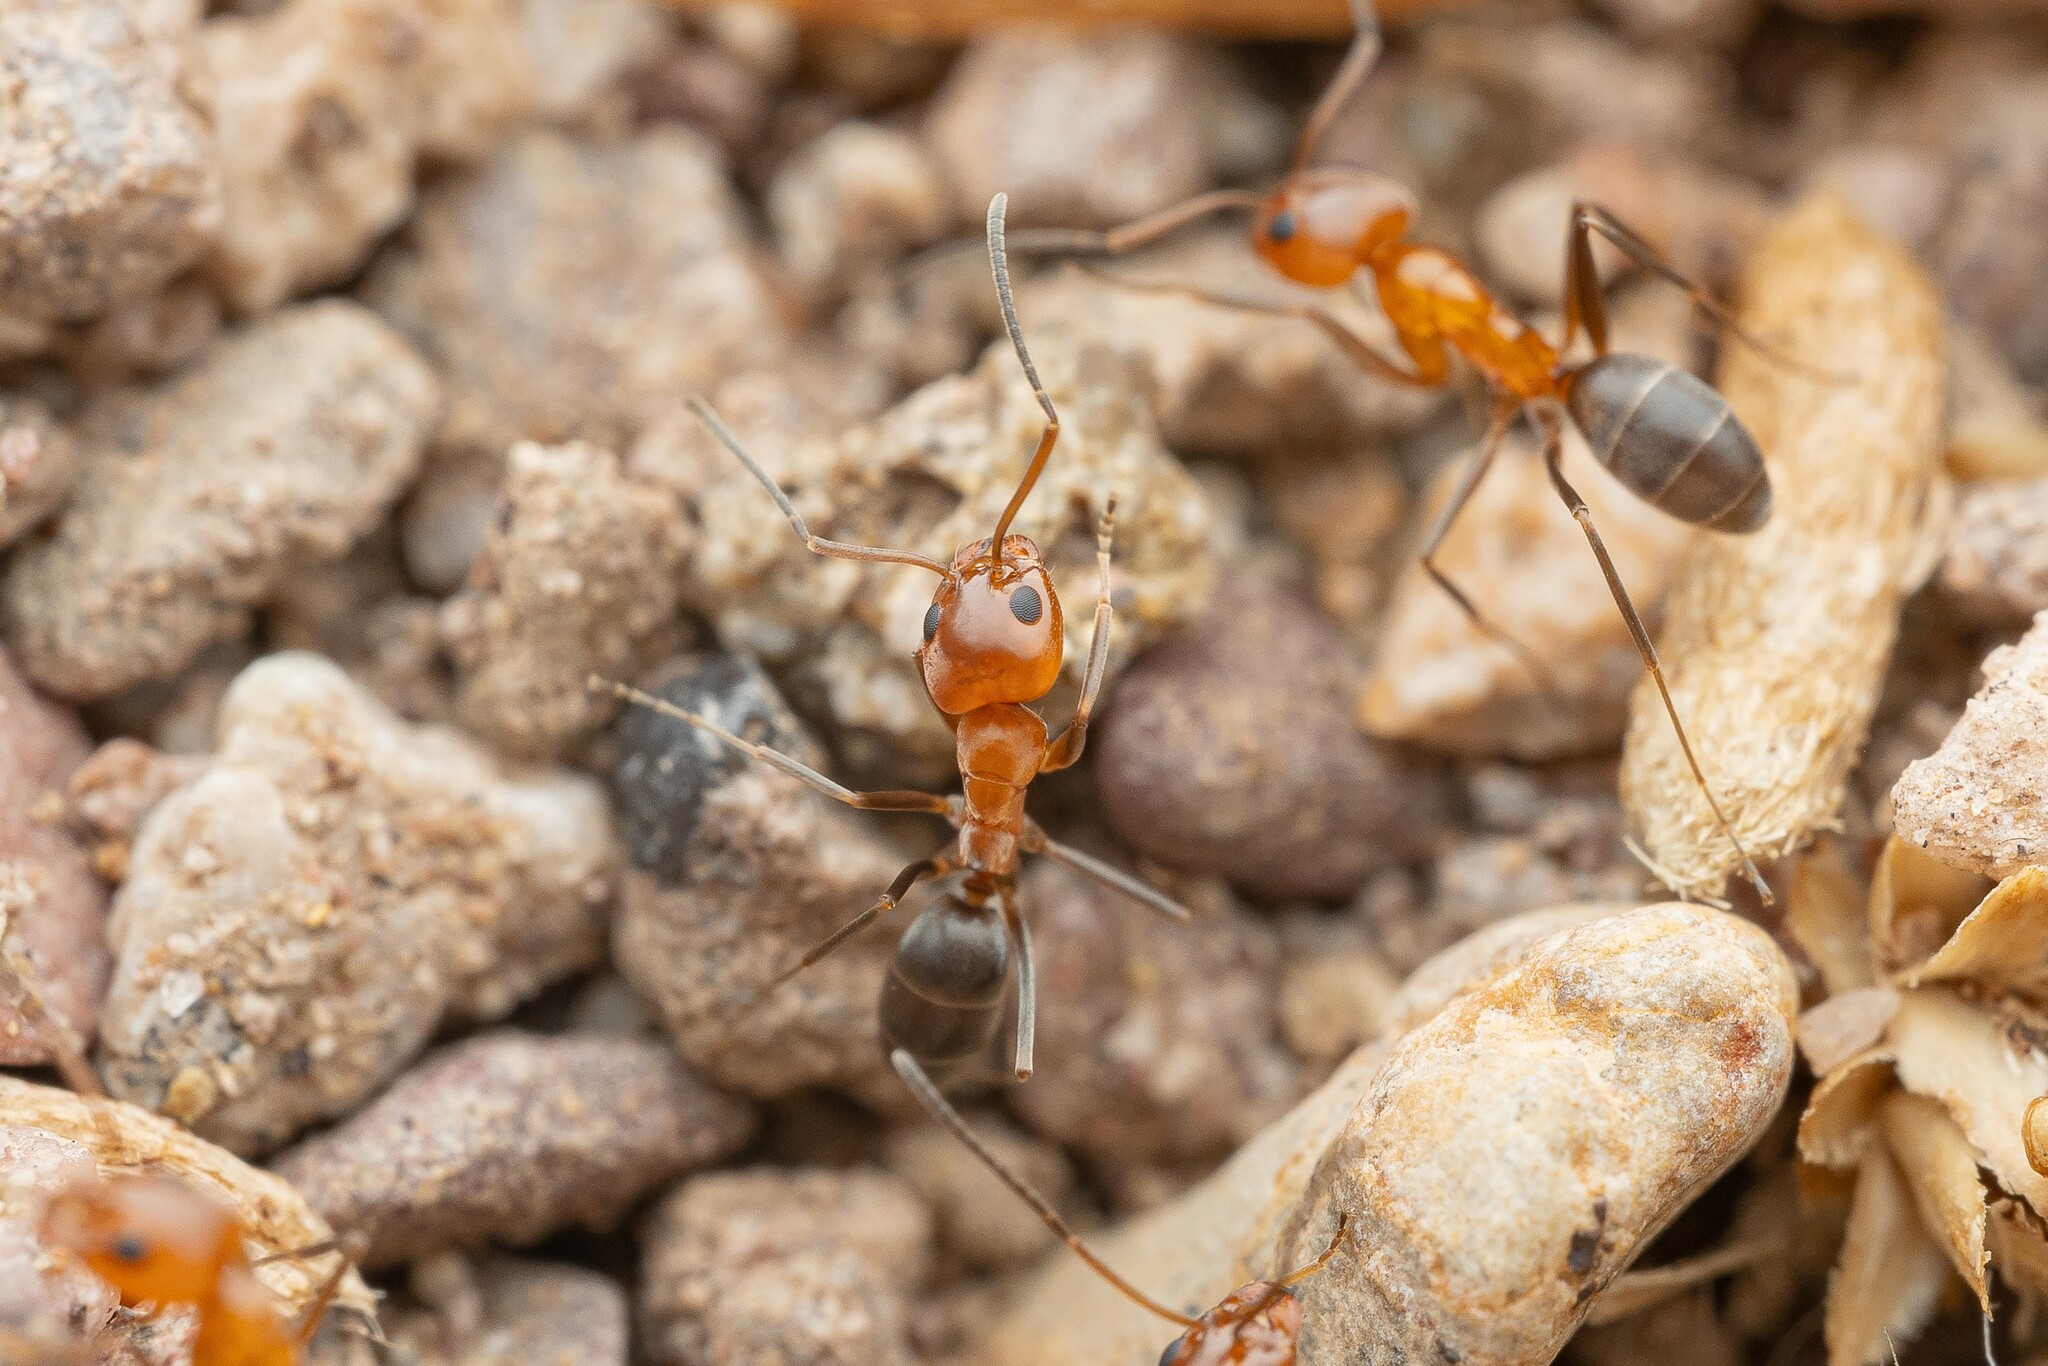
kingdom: Animalia
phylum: Arthropoda
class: Insecta
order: Hymenoptera
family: Formicidae
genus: Dorymyrmex
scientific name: Dorymyrmex bicolor
